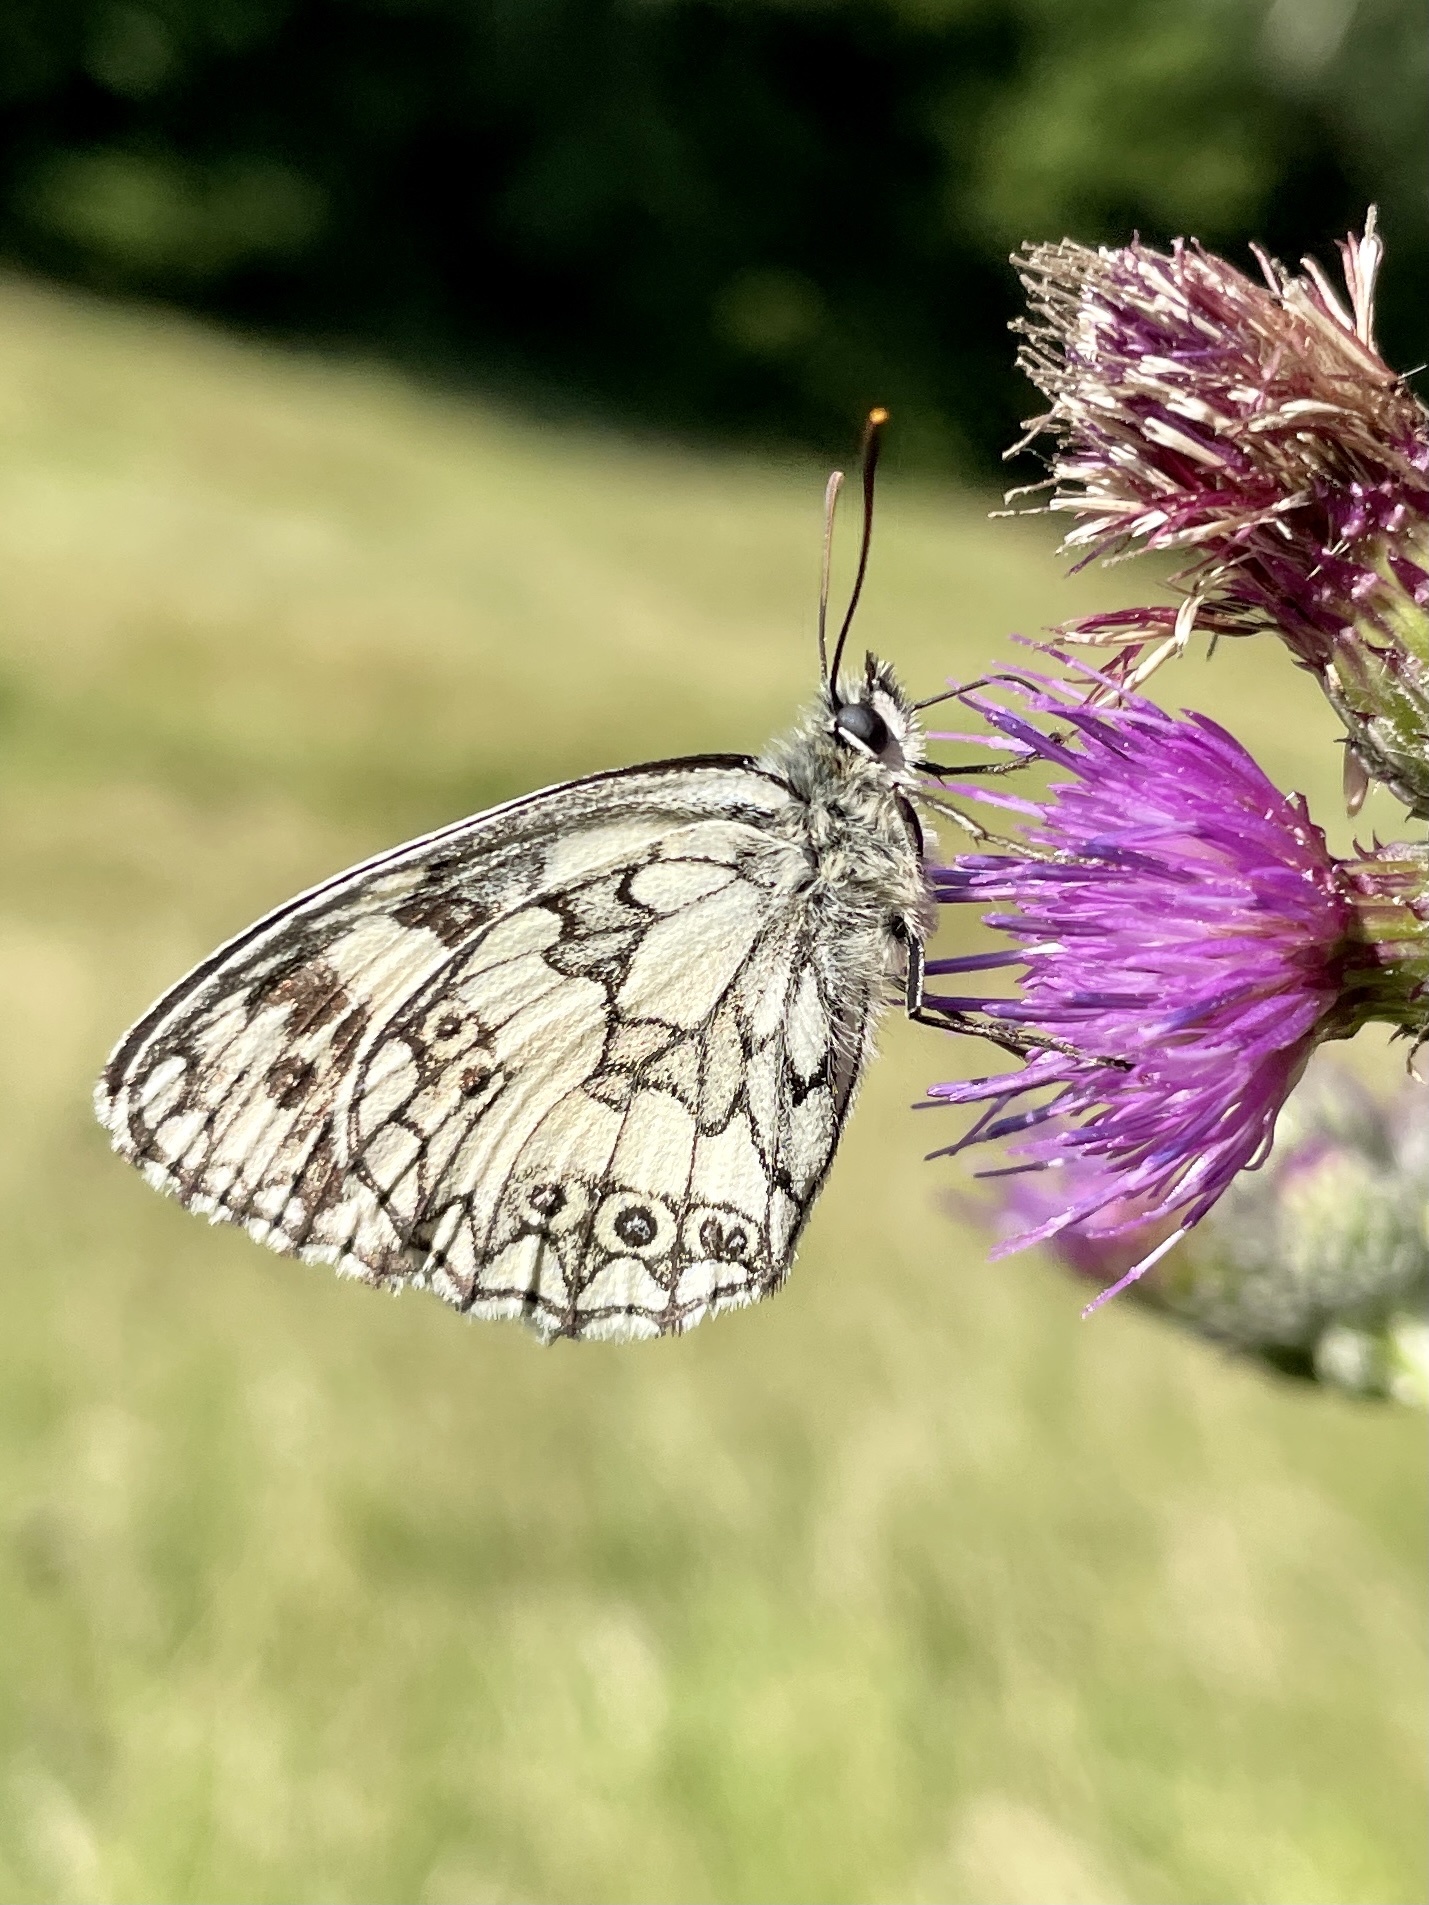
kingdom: Animalia
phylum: Arthropoda
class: Insecta
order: Lepidoptera
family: Nymphalidae
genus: Melanargia
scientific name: Melanargia galathea
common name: Marbled white
